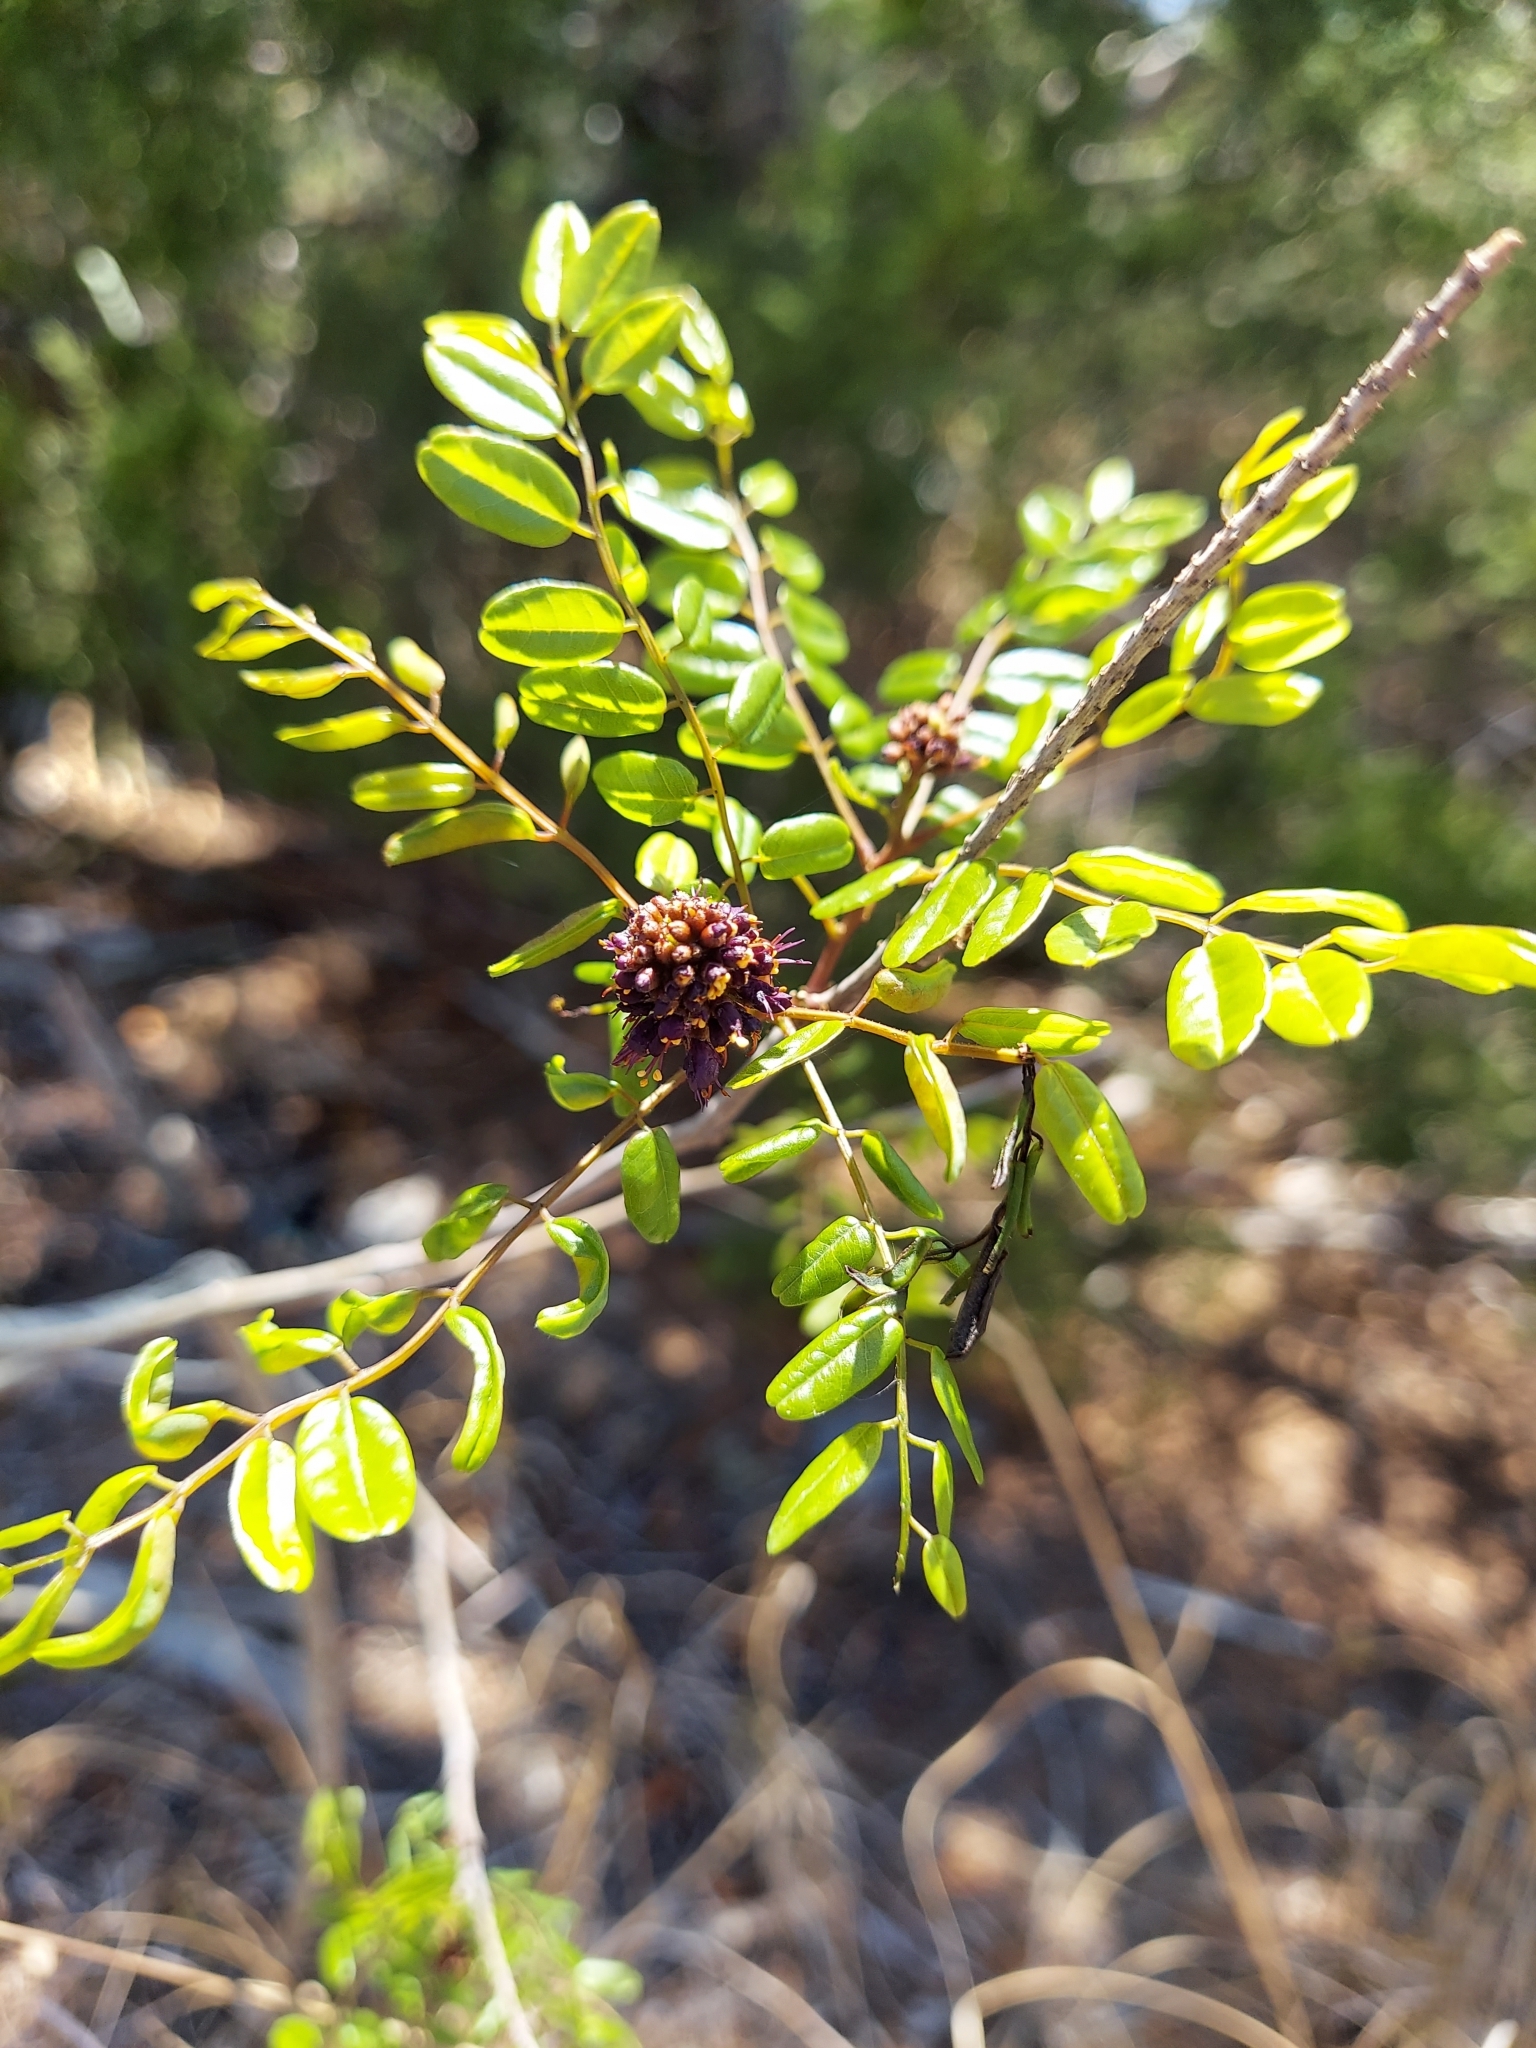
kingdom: Plantae
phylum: Tracheophyta
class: Magnoliopsida
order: Fabales
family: Fabaceae
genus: Amorpha
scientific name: Amorpha fruticosa
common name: False indigo
